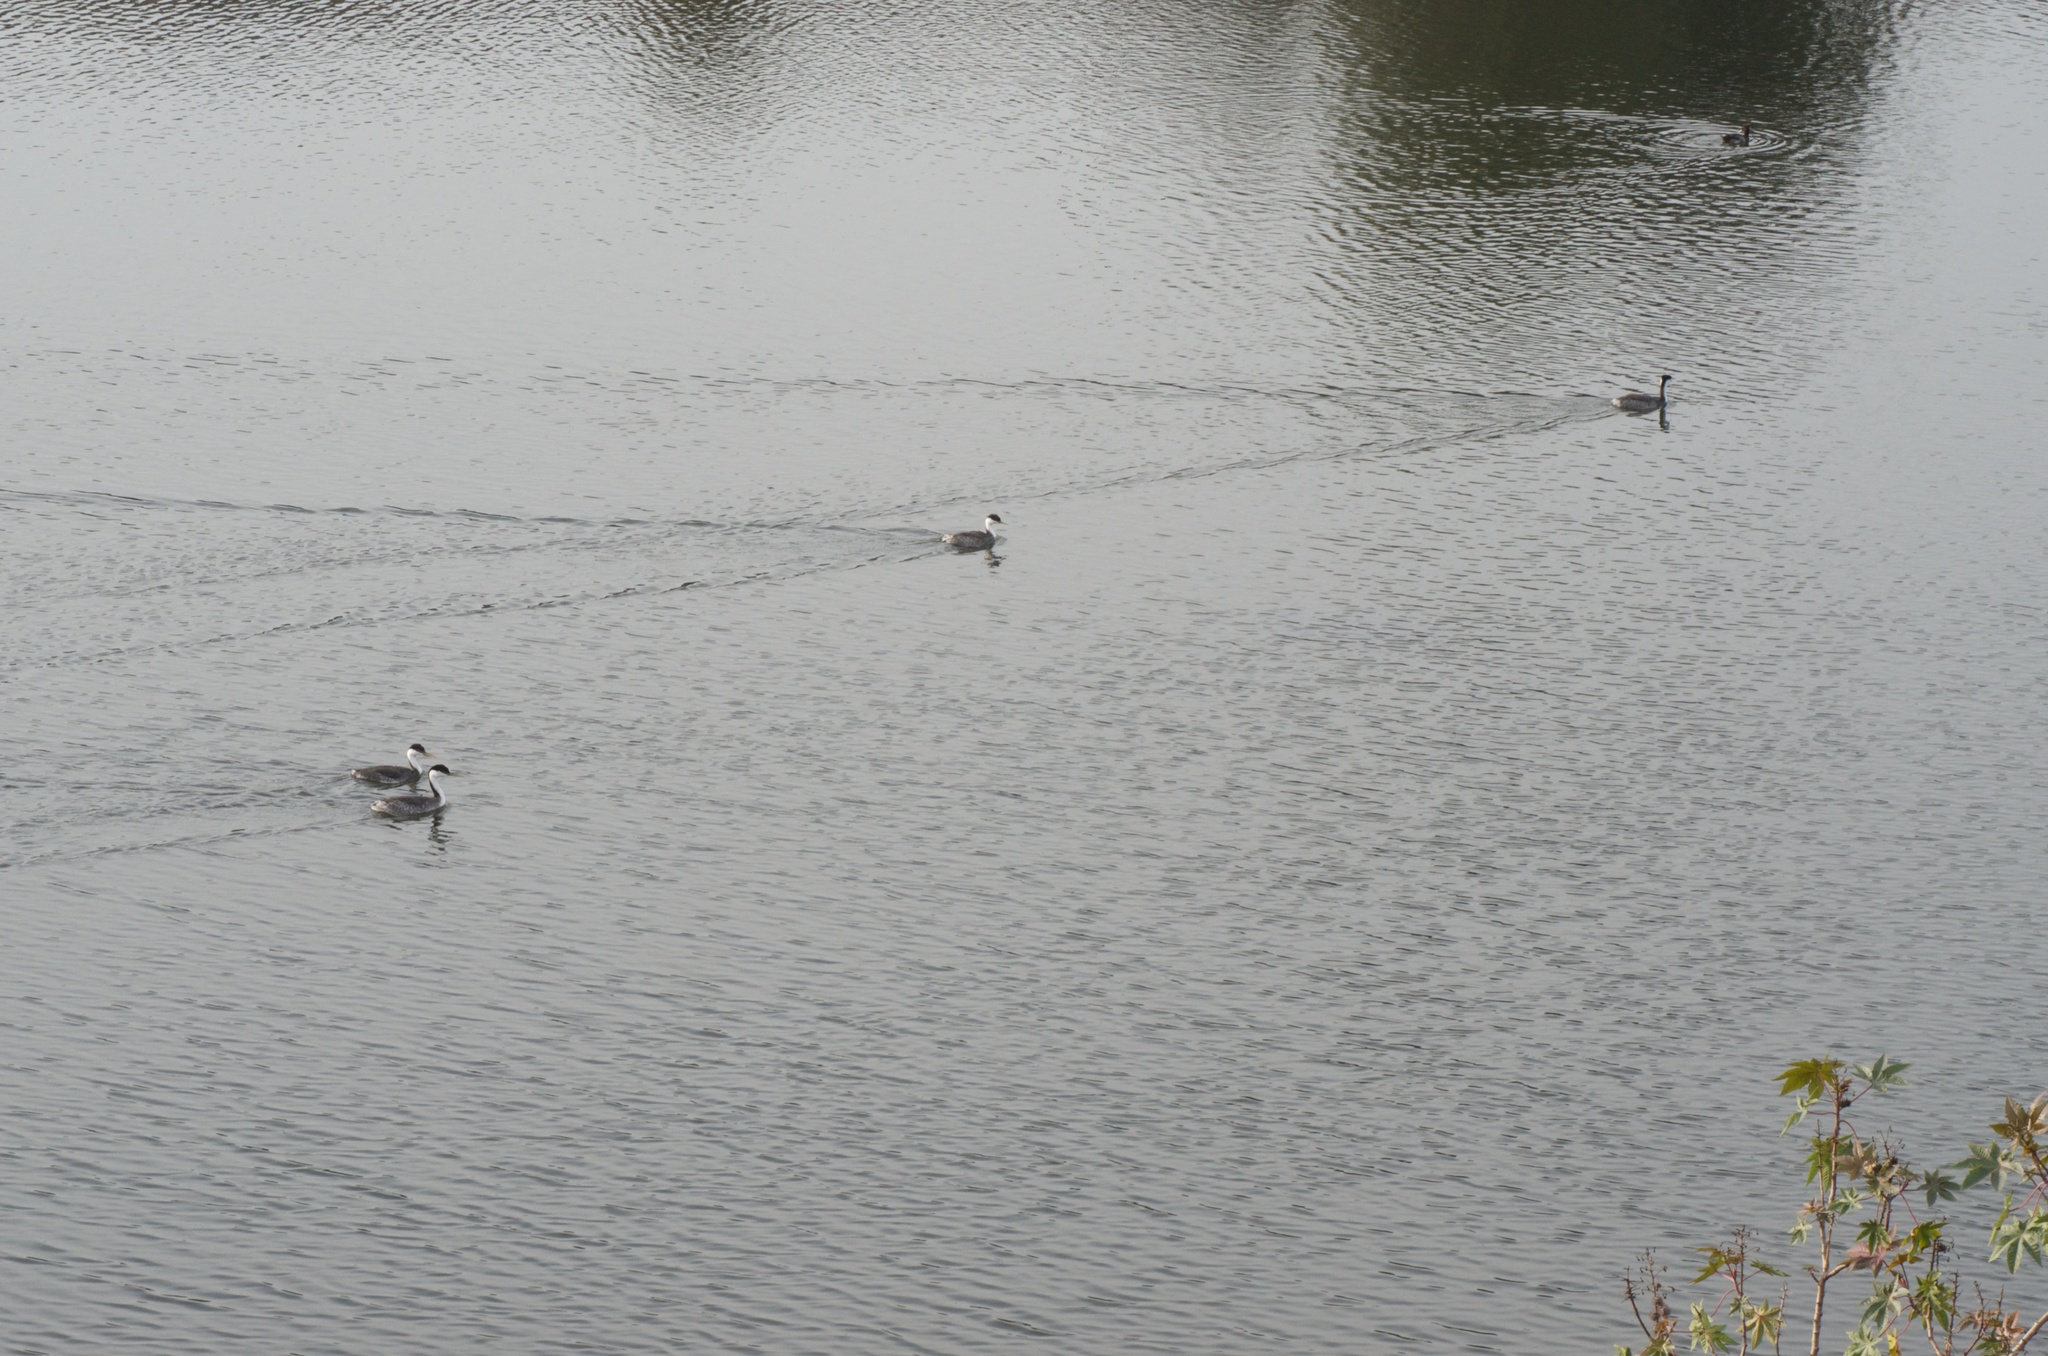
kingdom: Animalia
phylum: Chordata
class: Aves
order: Podicipediformes
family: Podicipedidae
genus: Aechmophorus
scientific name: Aechmophorus occidentalis
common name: Western grebe
